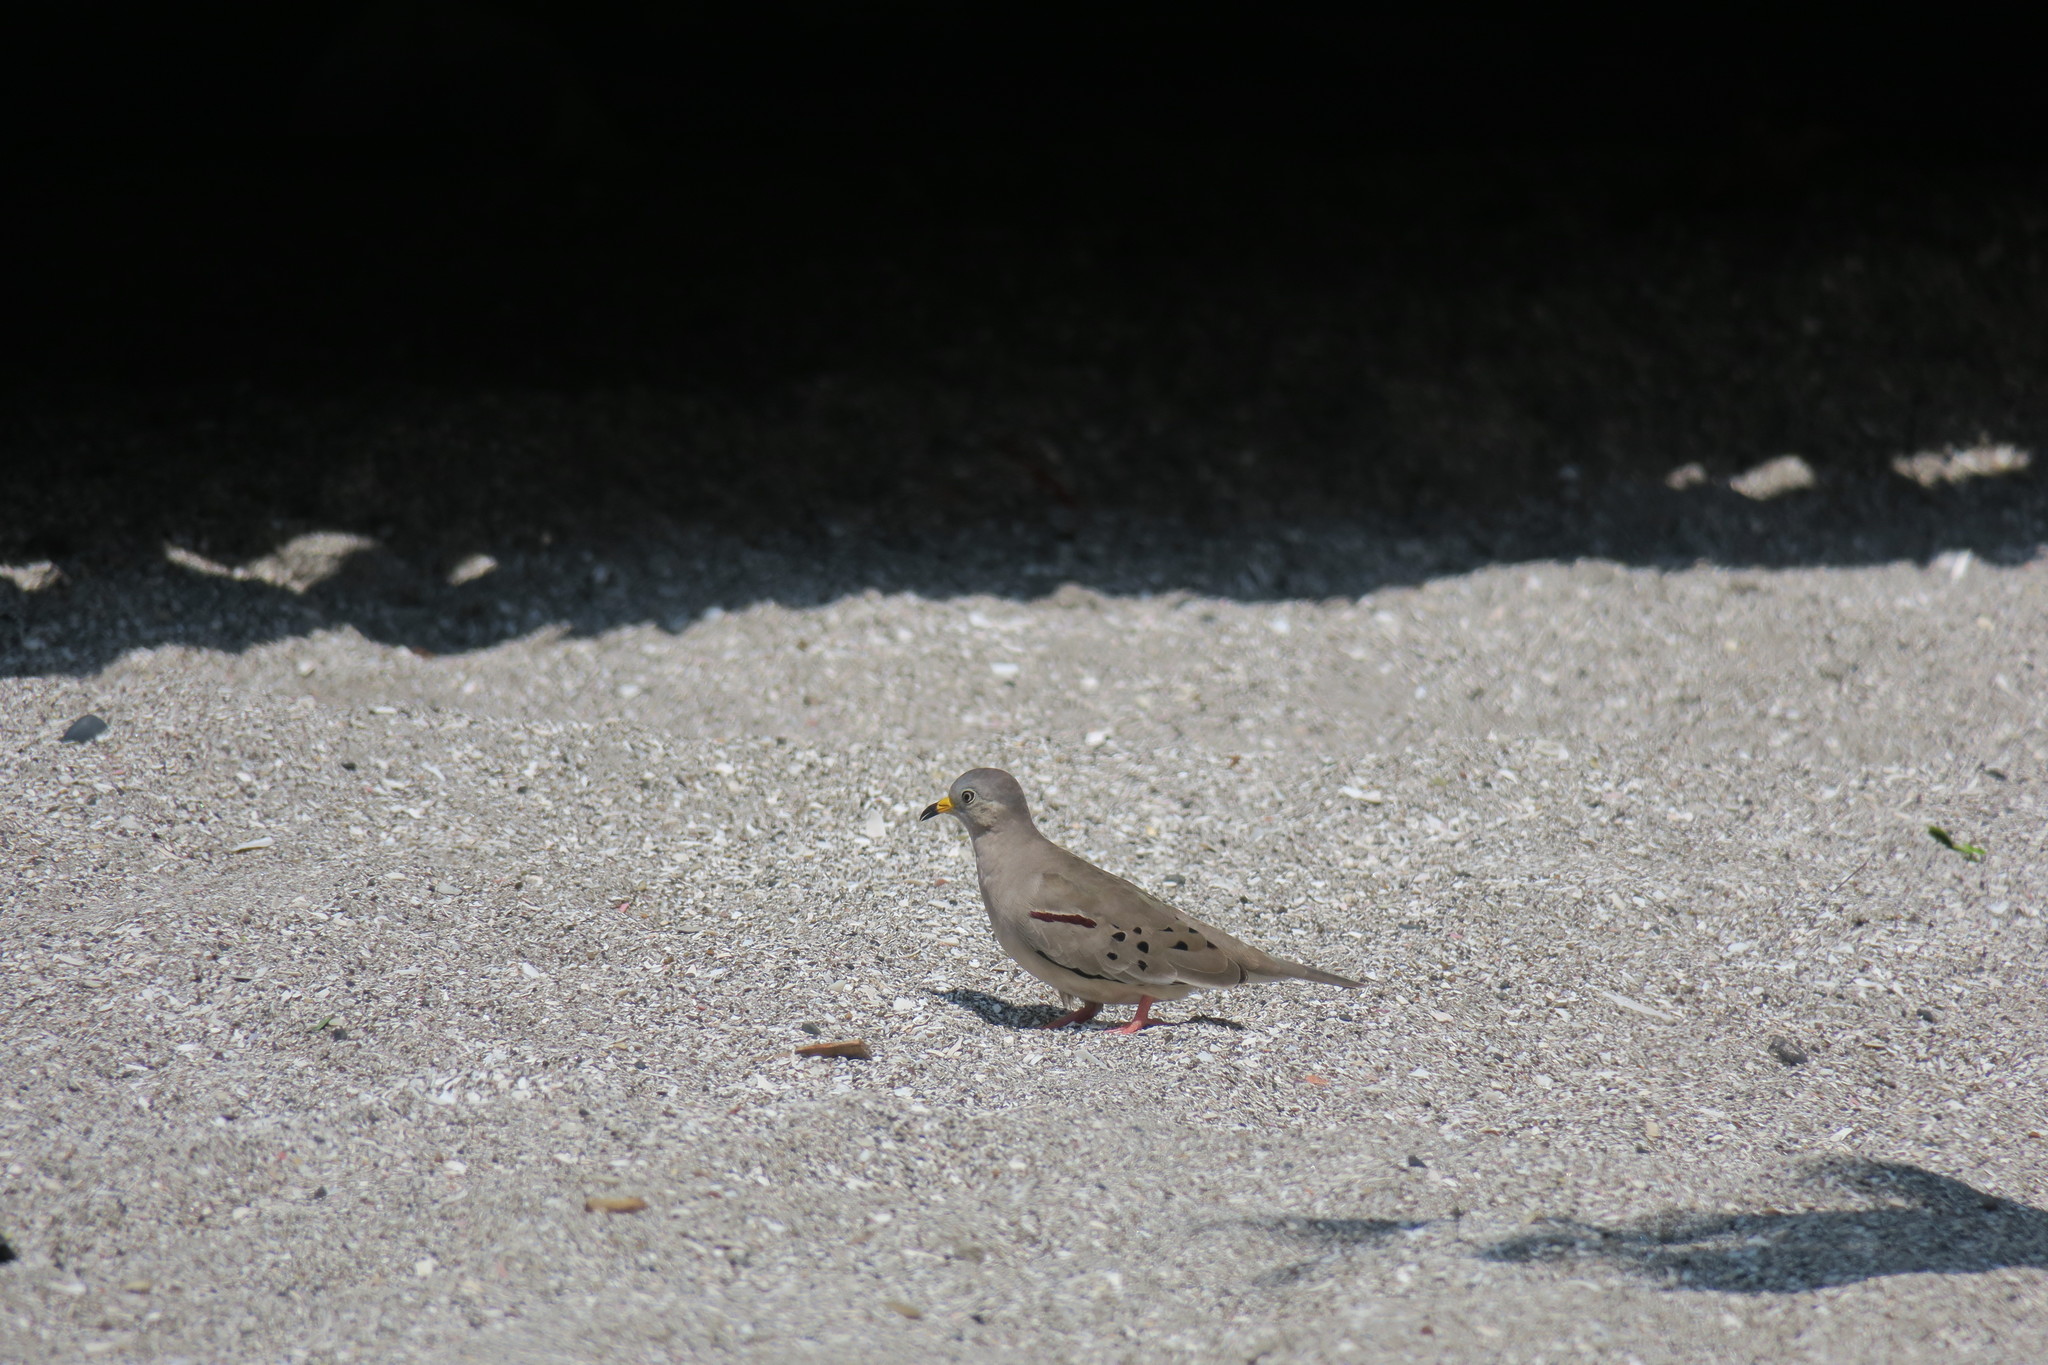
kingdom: Animalia
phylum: Chordata
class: Aves
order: Columbiformes
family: Columbidae
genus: Columbina
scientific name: Columbina cruziana
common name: Croaking ground dove
